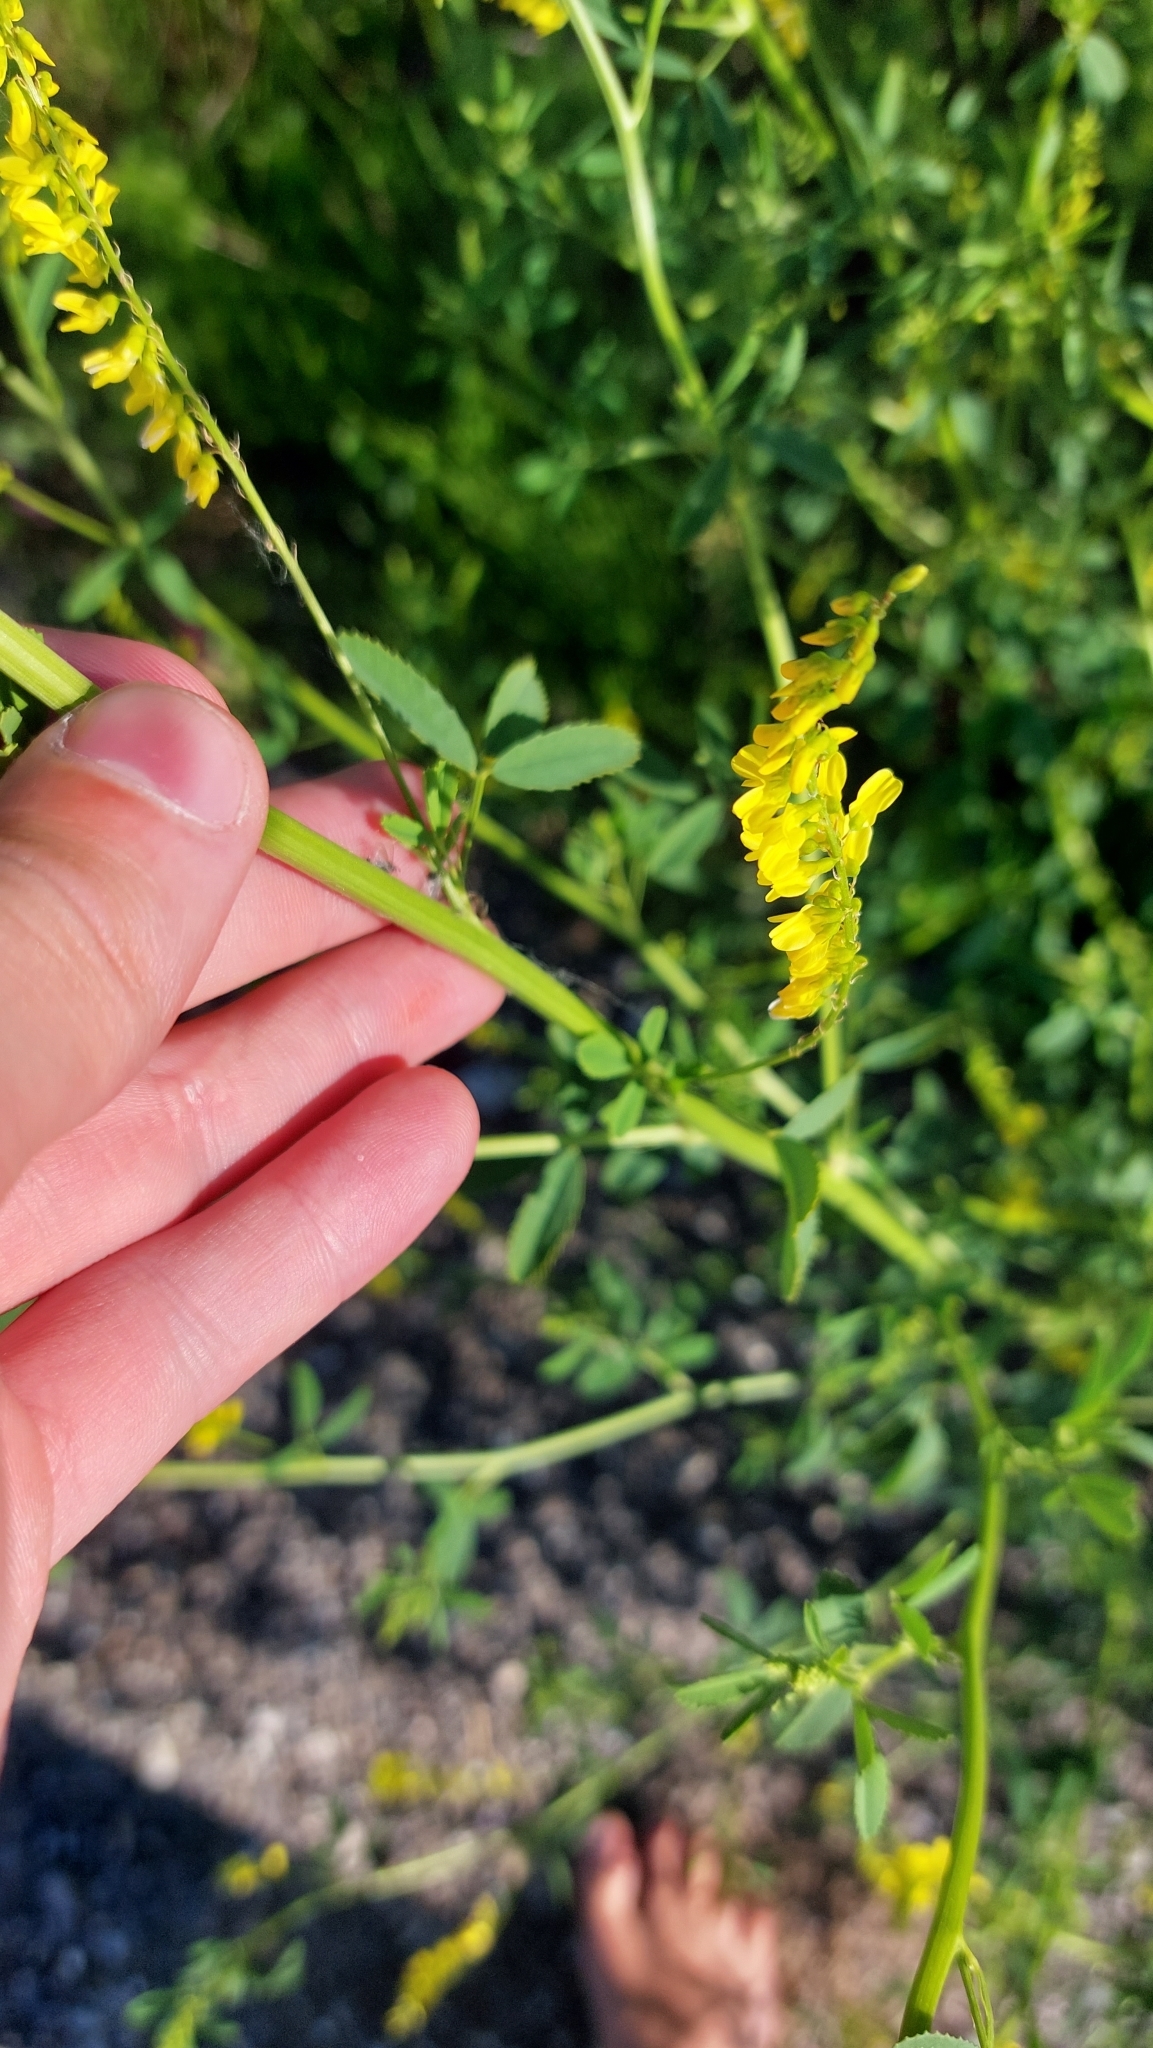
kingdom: Plantae
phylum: Tracheophyta
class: Magnoliopsida
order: Fabales
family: Fabaceae
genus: Melilotus
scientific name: Melilotus officinalis
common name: Sweetclover
